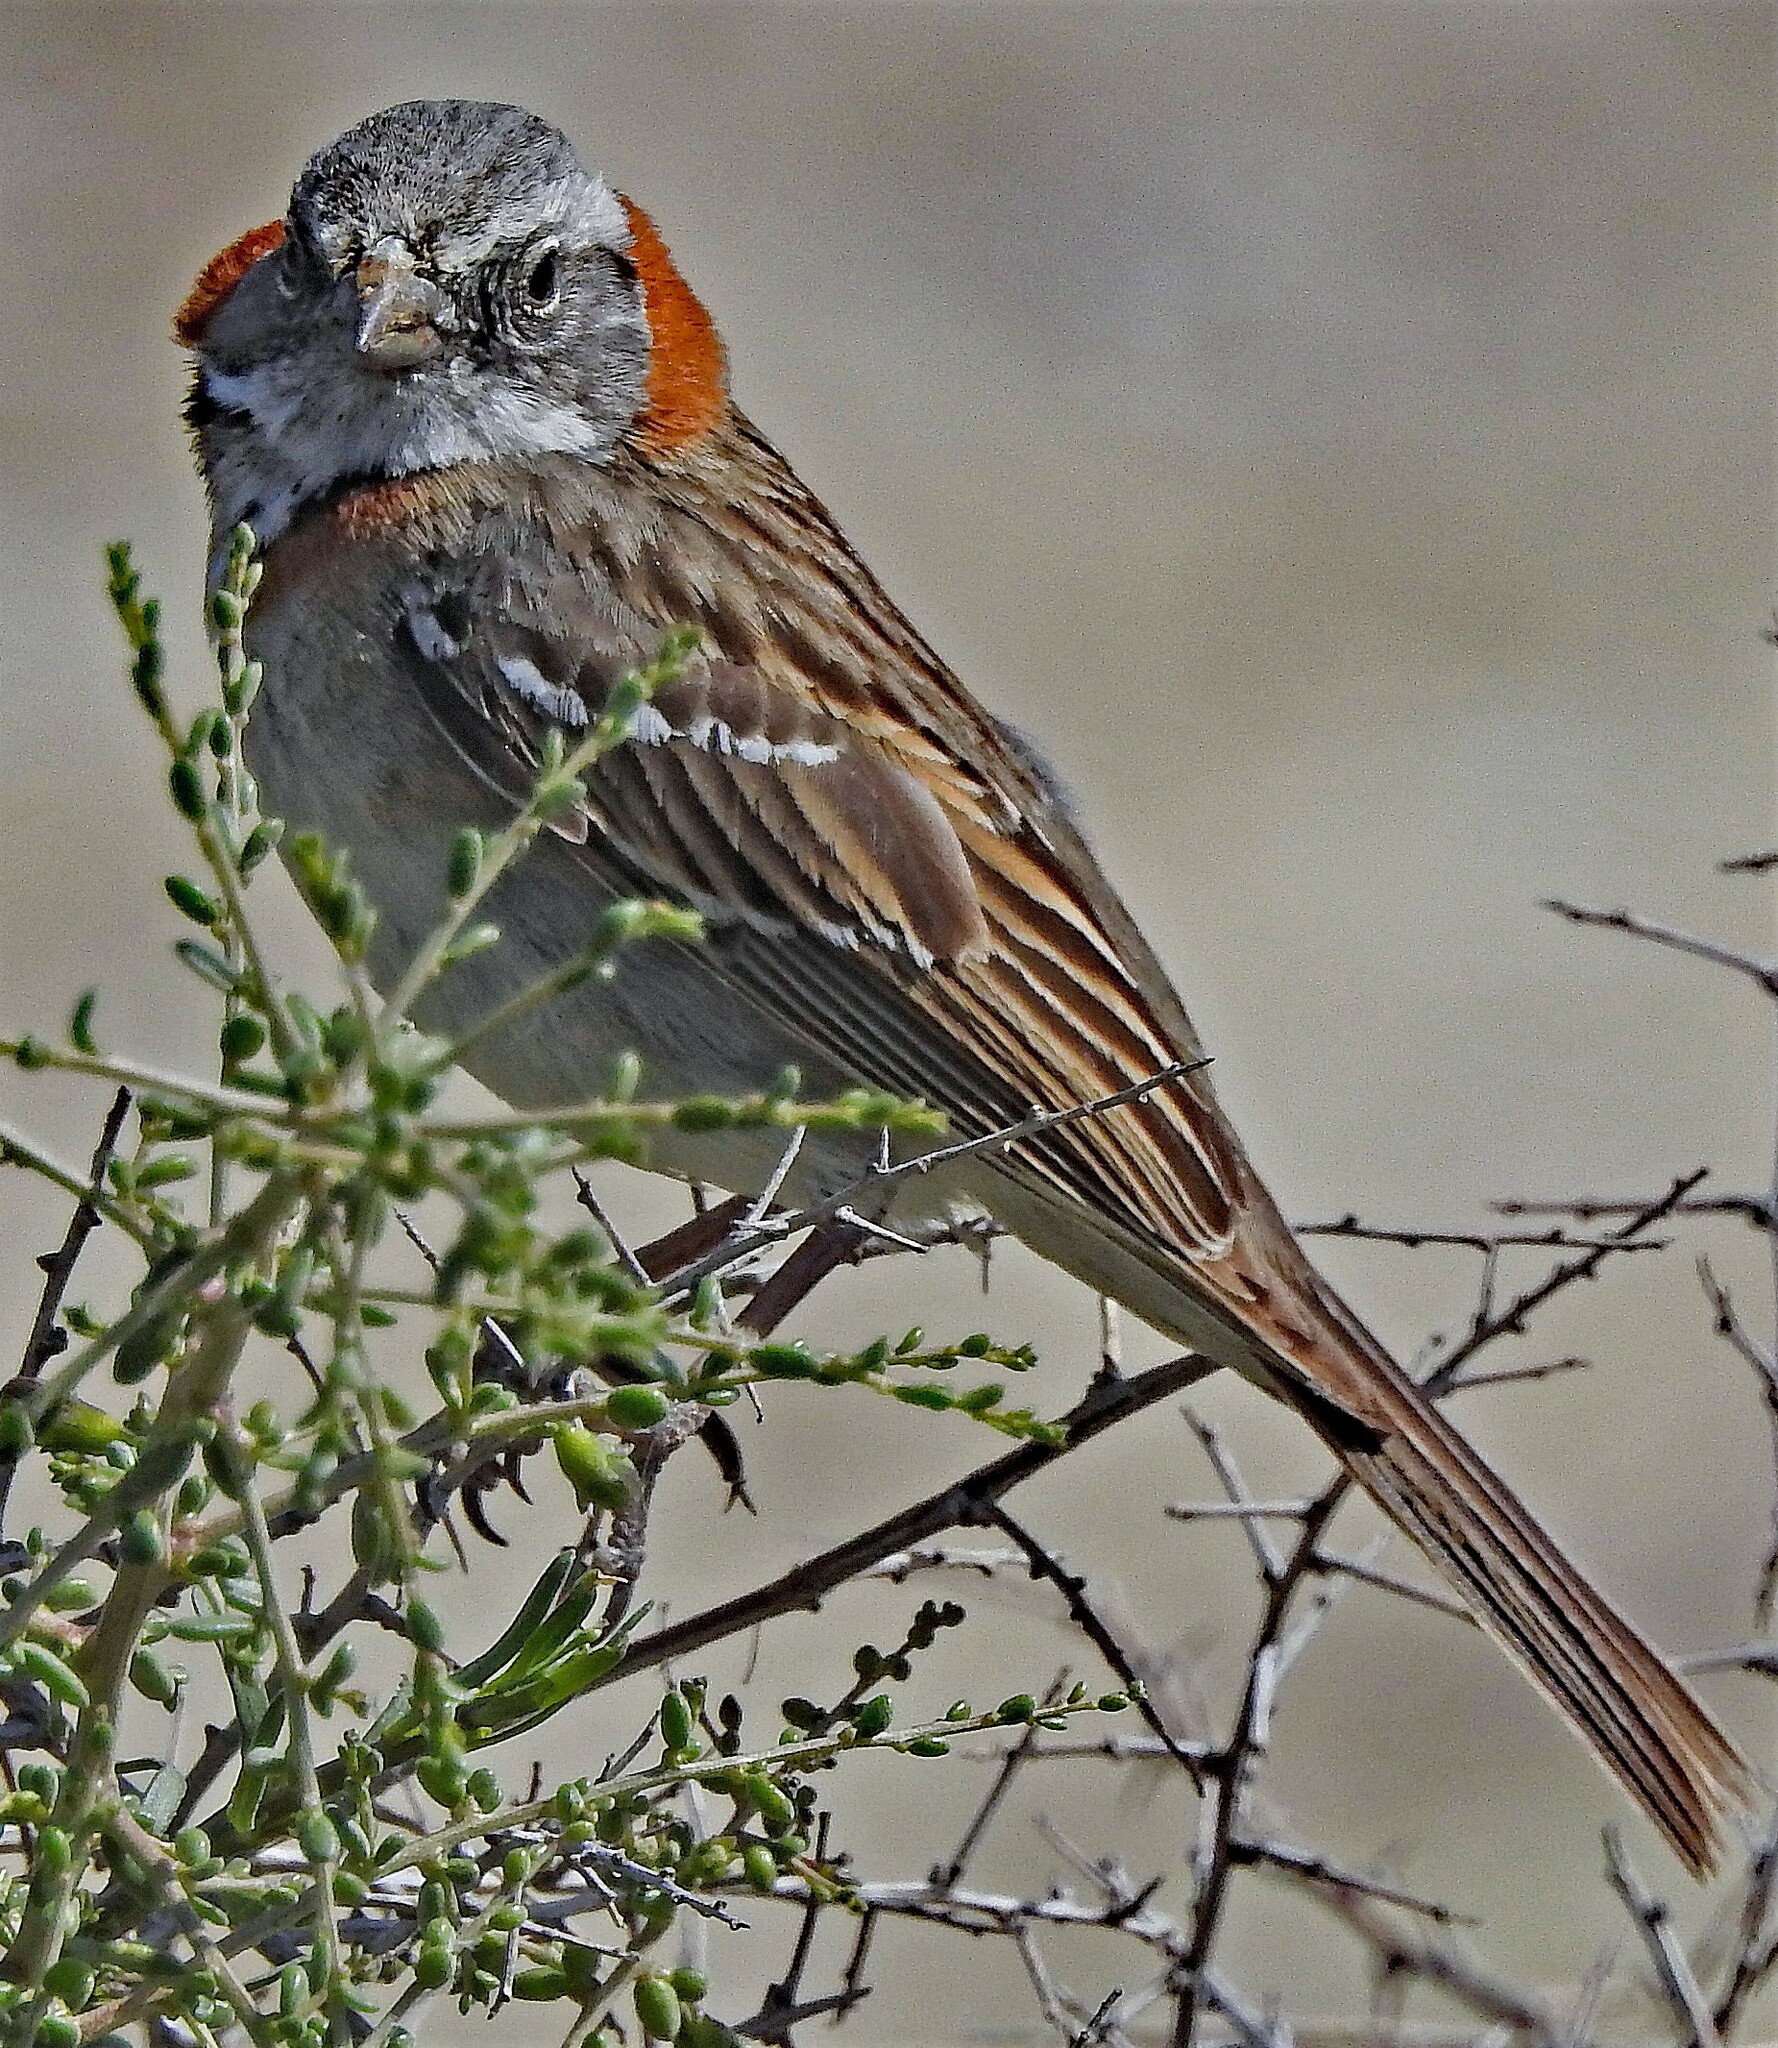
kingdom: Animalia
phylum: Chordata
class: Aves
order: Passeriformes
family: Passerellidae
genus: Zonotrichia
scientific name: Zonotrichia capensis
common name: Rufous-collared sparrow
